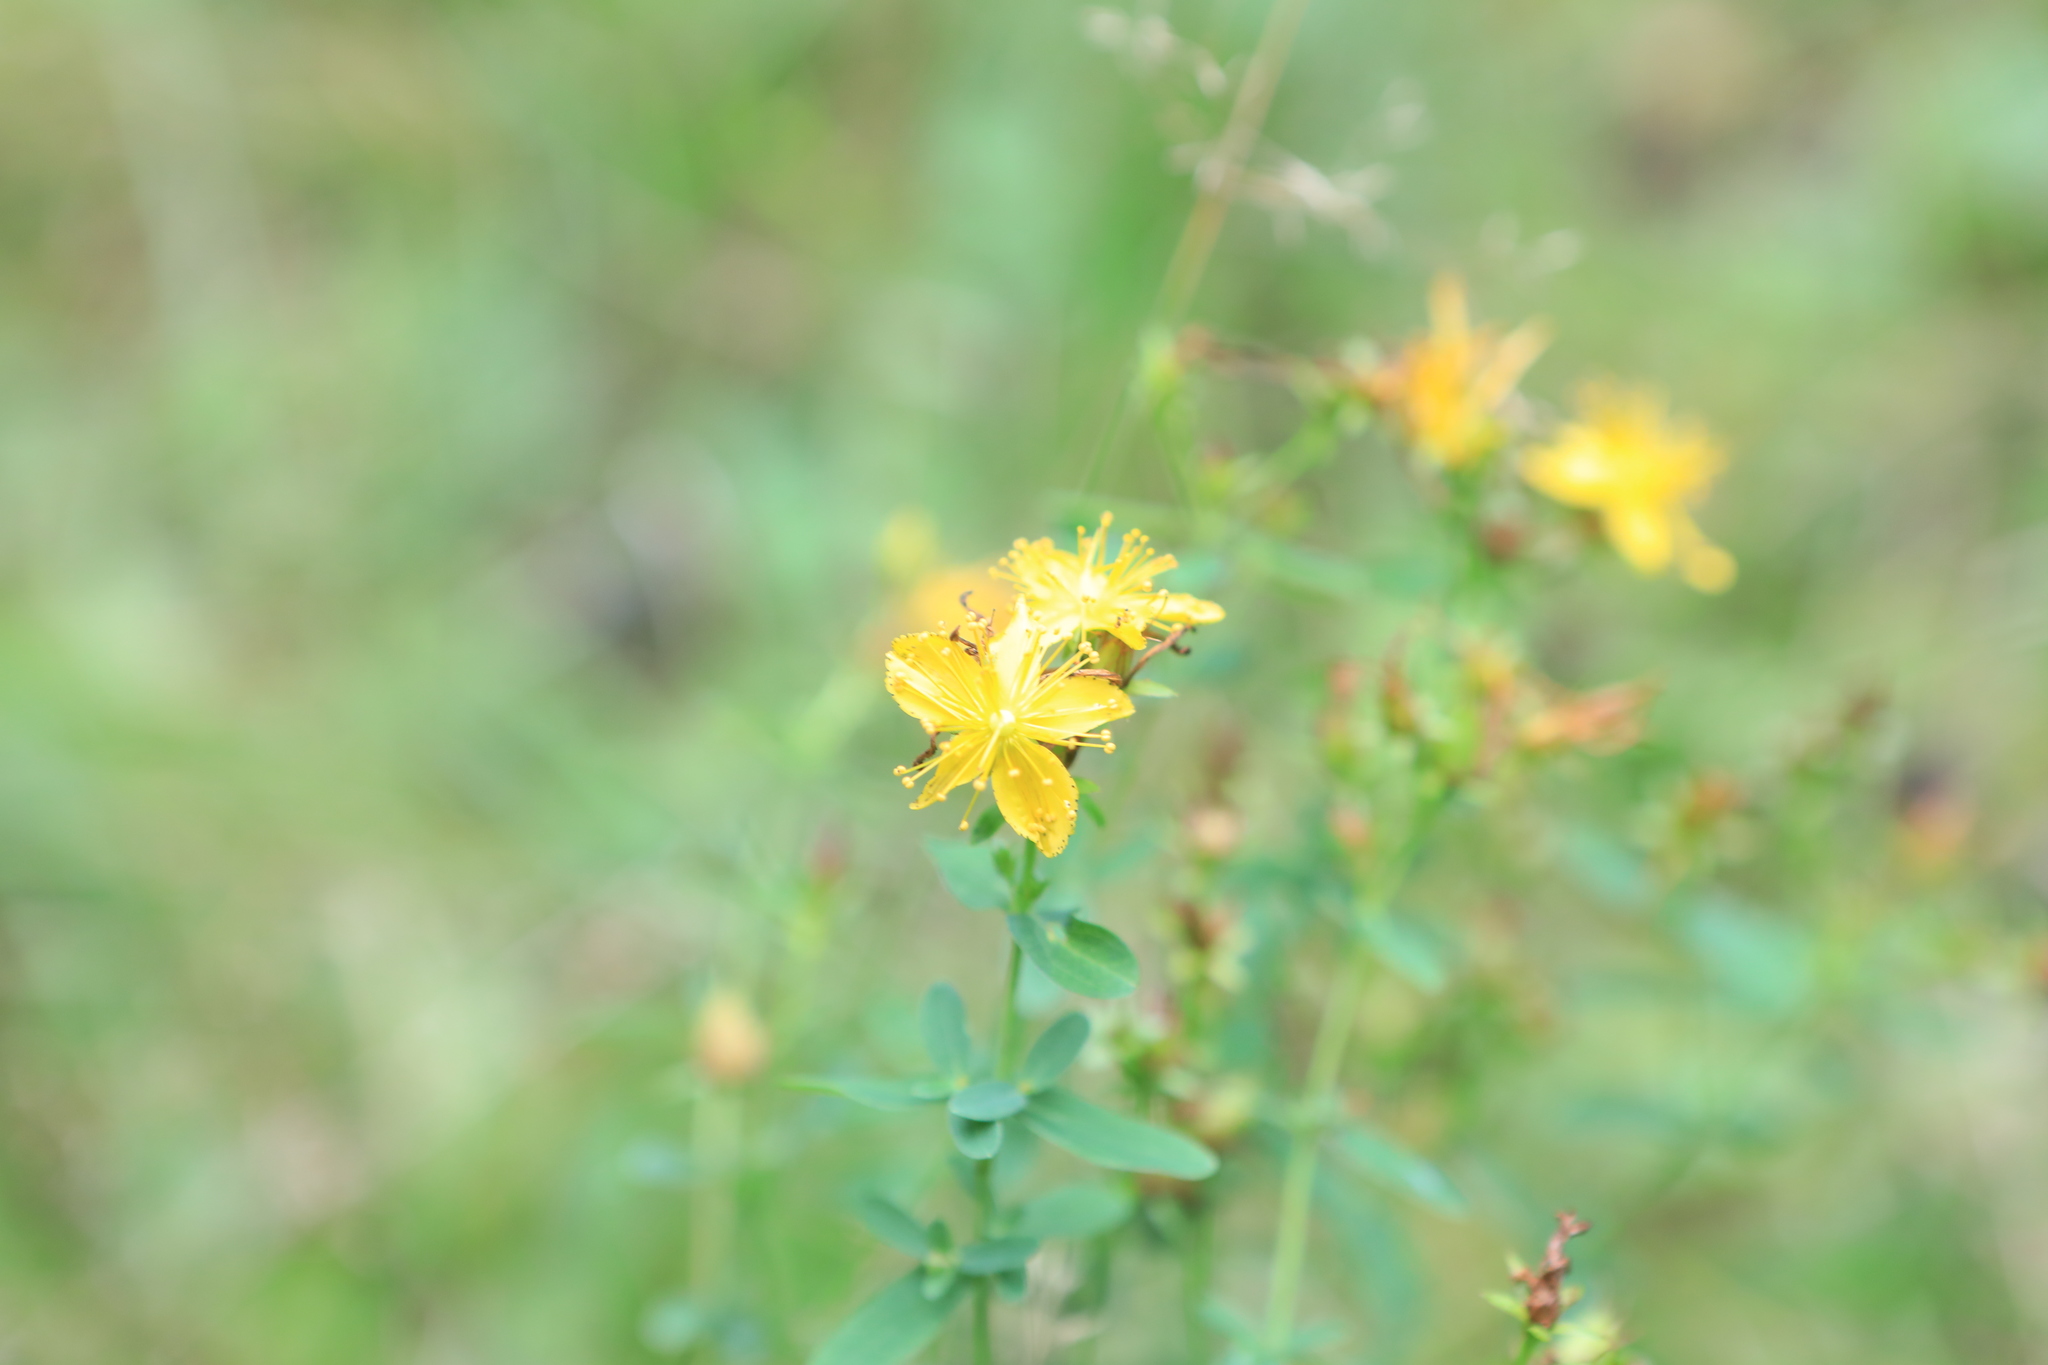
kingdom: Plantae
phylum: Tracheophyta
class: Magnoliopsida
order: Malpighiales
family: Hypericaceae
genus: Hypericum
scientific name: Hypericum perforatum
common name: Common st. johnswort
